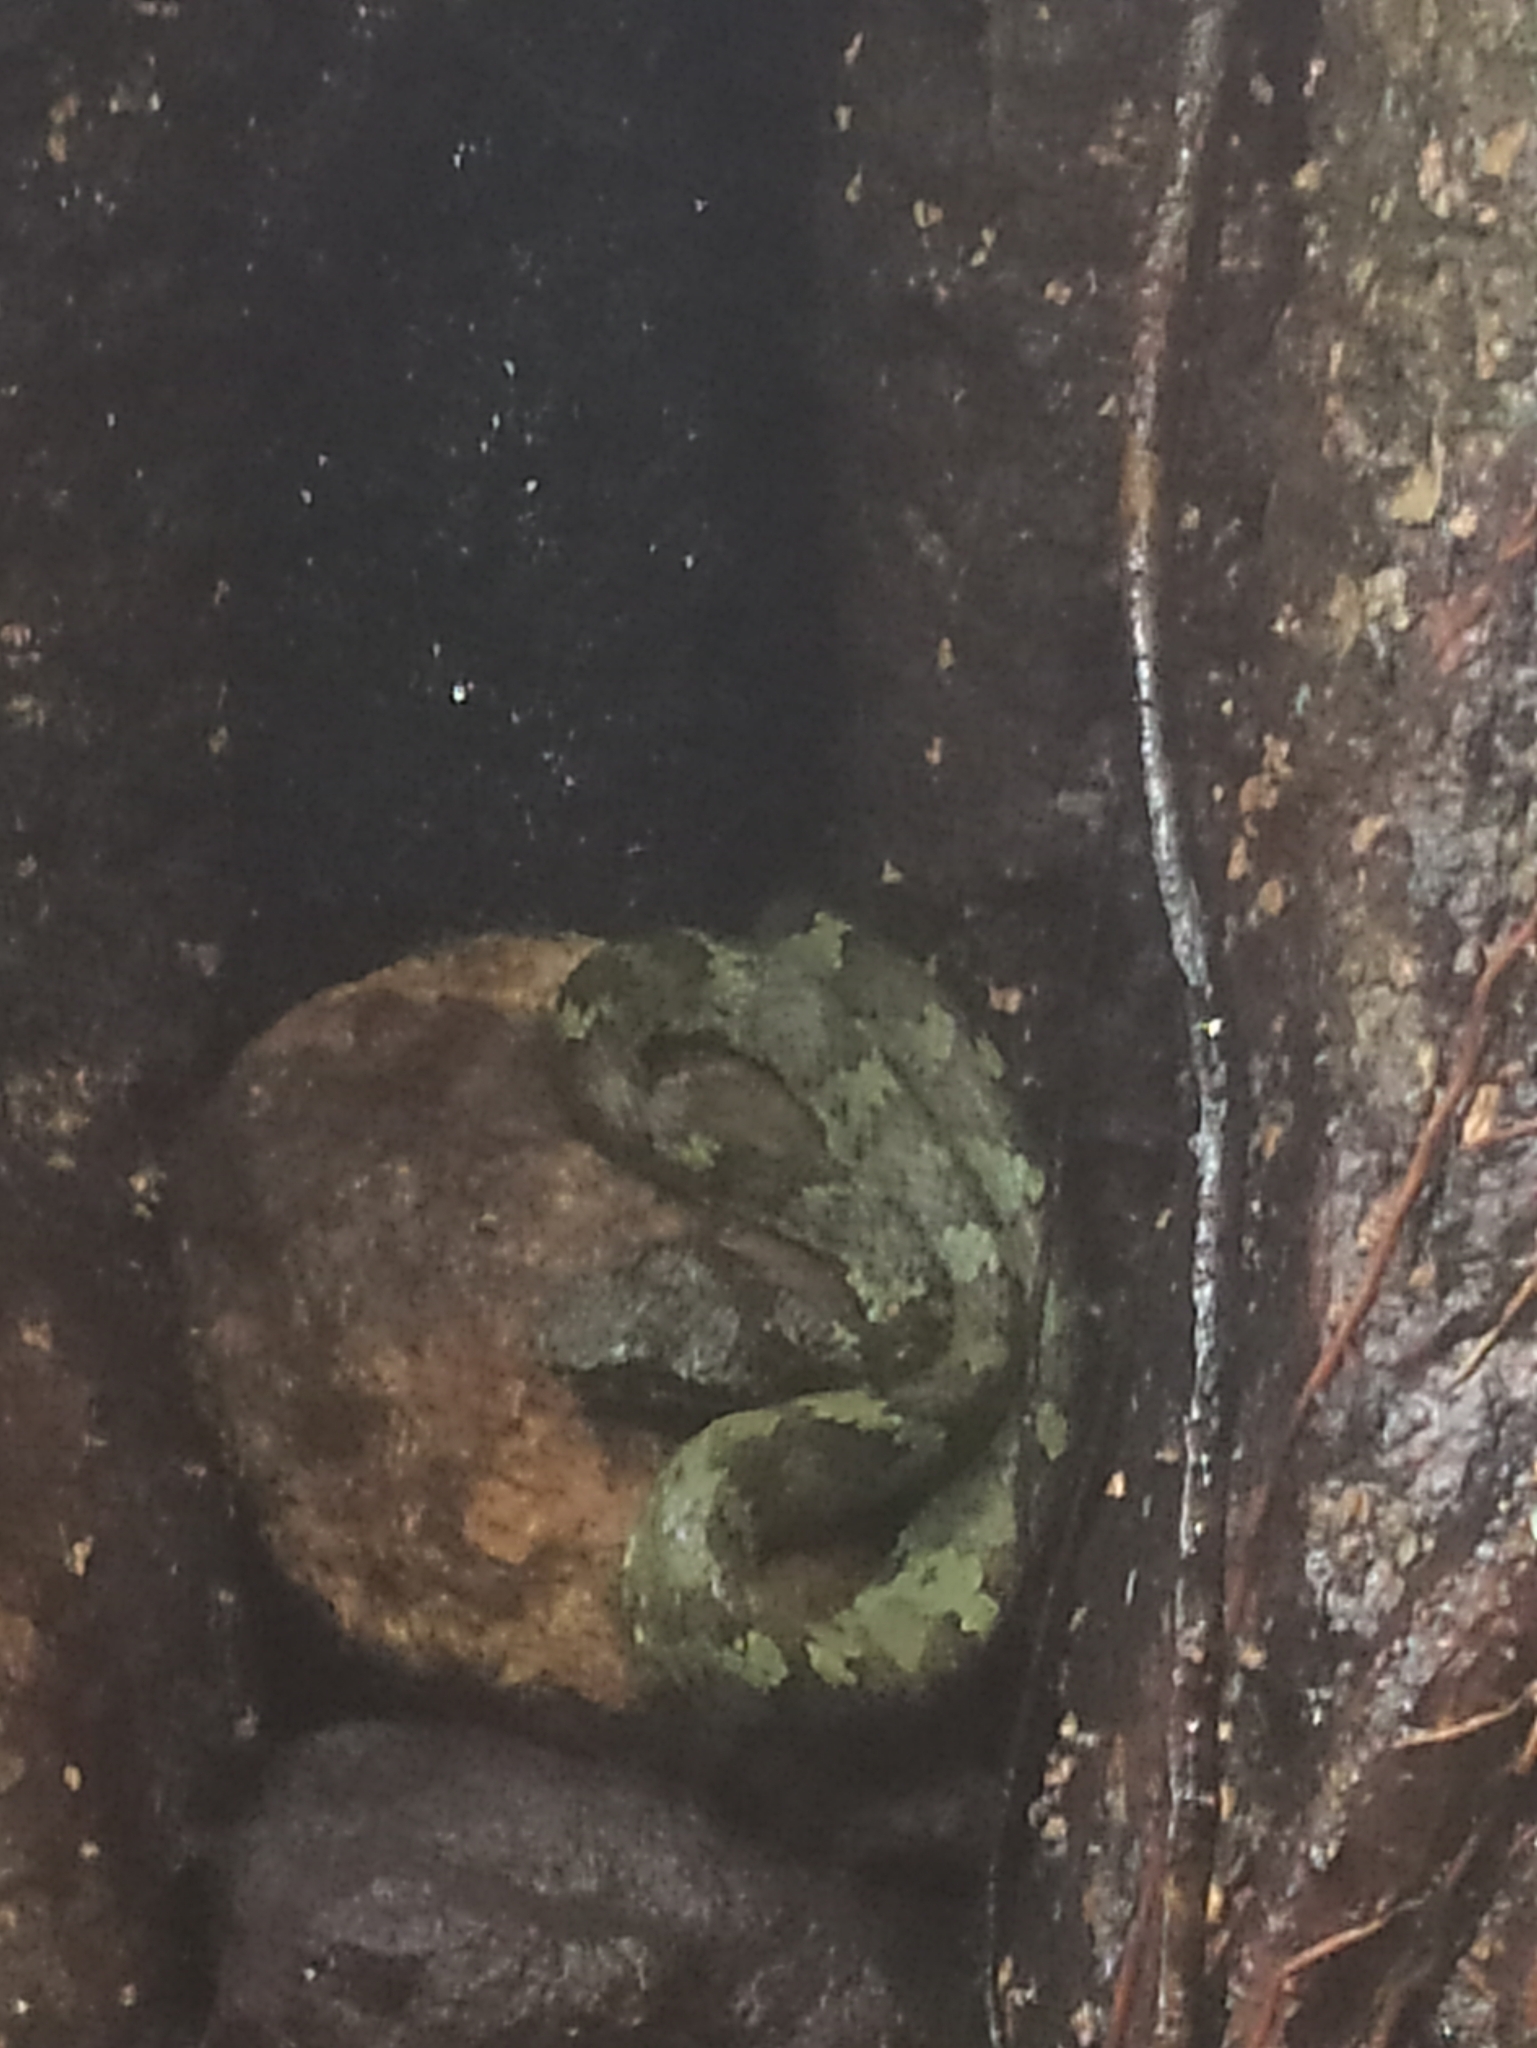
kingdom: Animalia
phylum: Chordata
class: Squamata
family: Viperidae
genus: Craspedocephalus
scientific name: Craspedocephalus malabaricus
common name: Malabarian pit viper
